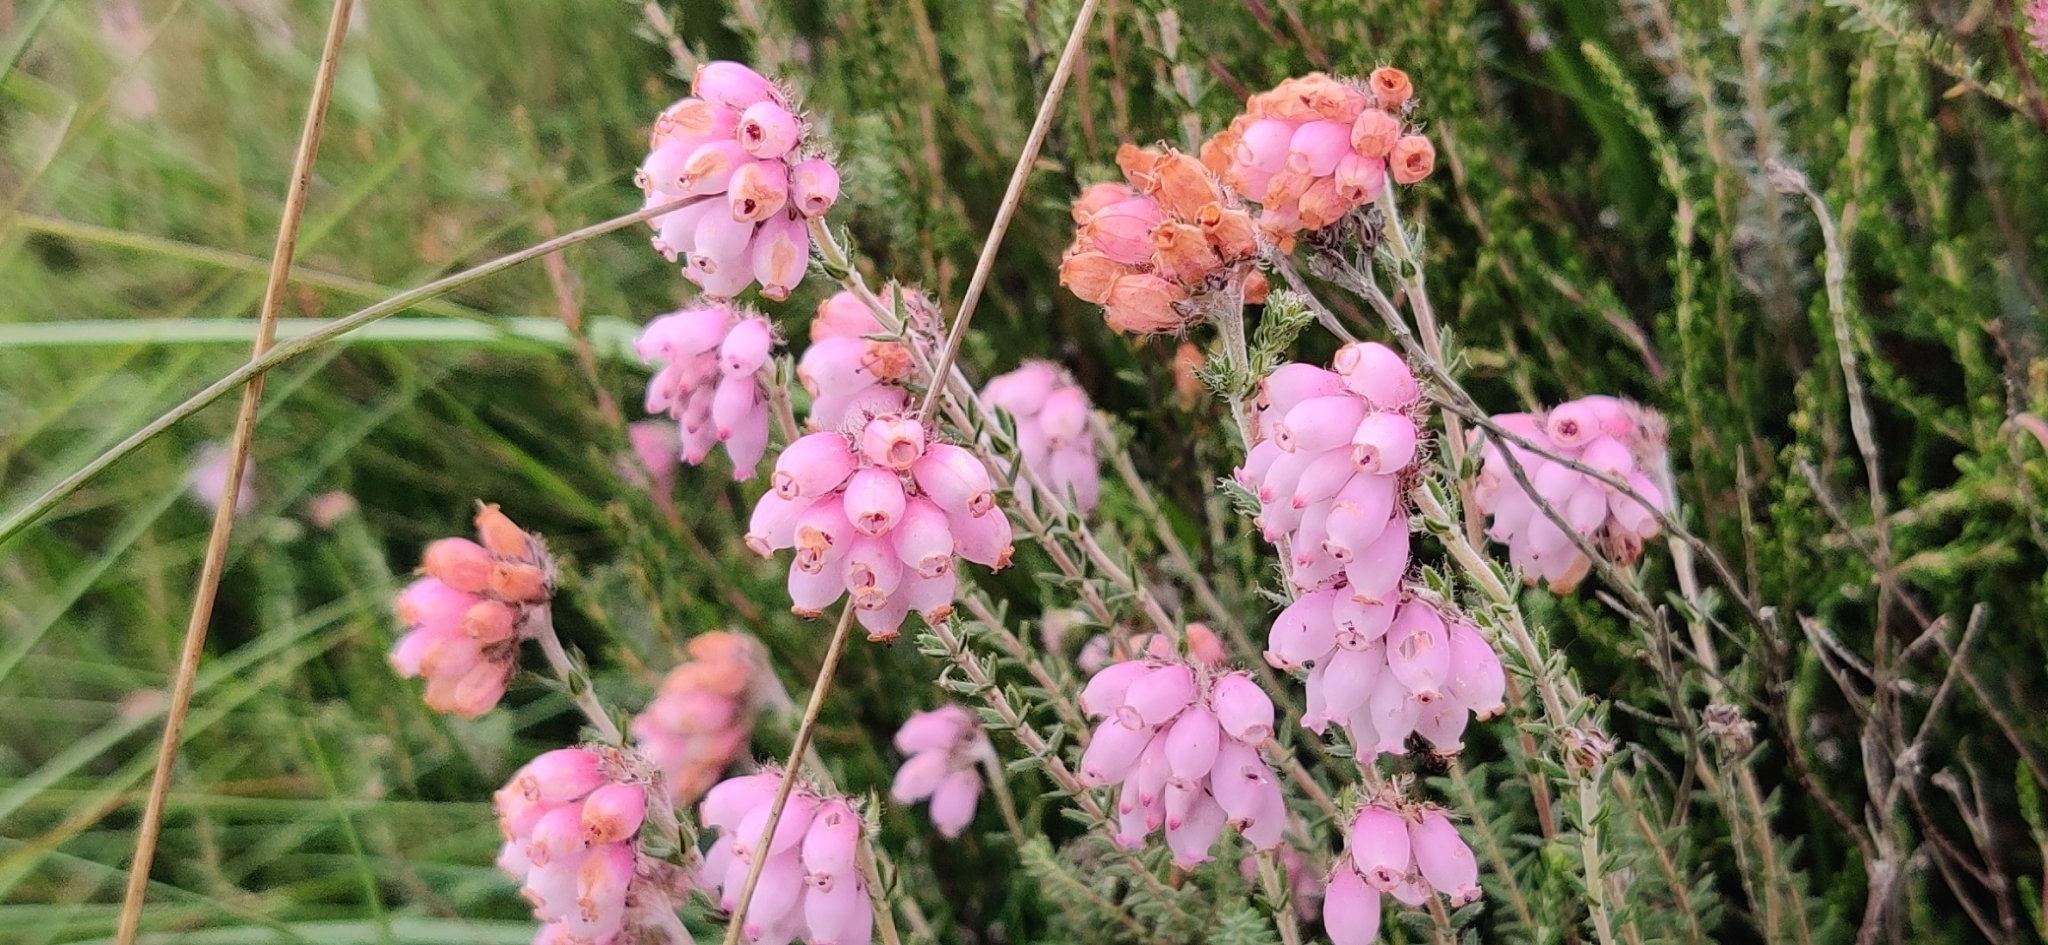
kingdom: Plantae
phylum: Tracheophyta
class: Magnoliopsida
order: Ericales
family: Ericaceae
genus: Erica
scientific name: Erica tetralix
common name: Cross-leaved heath
